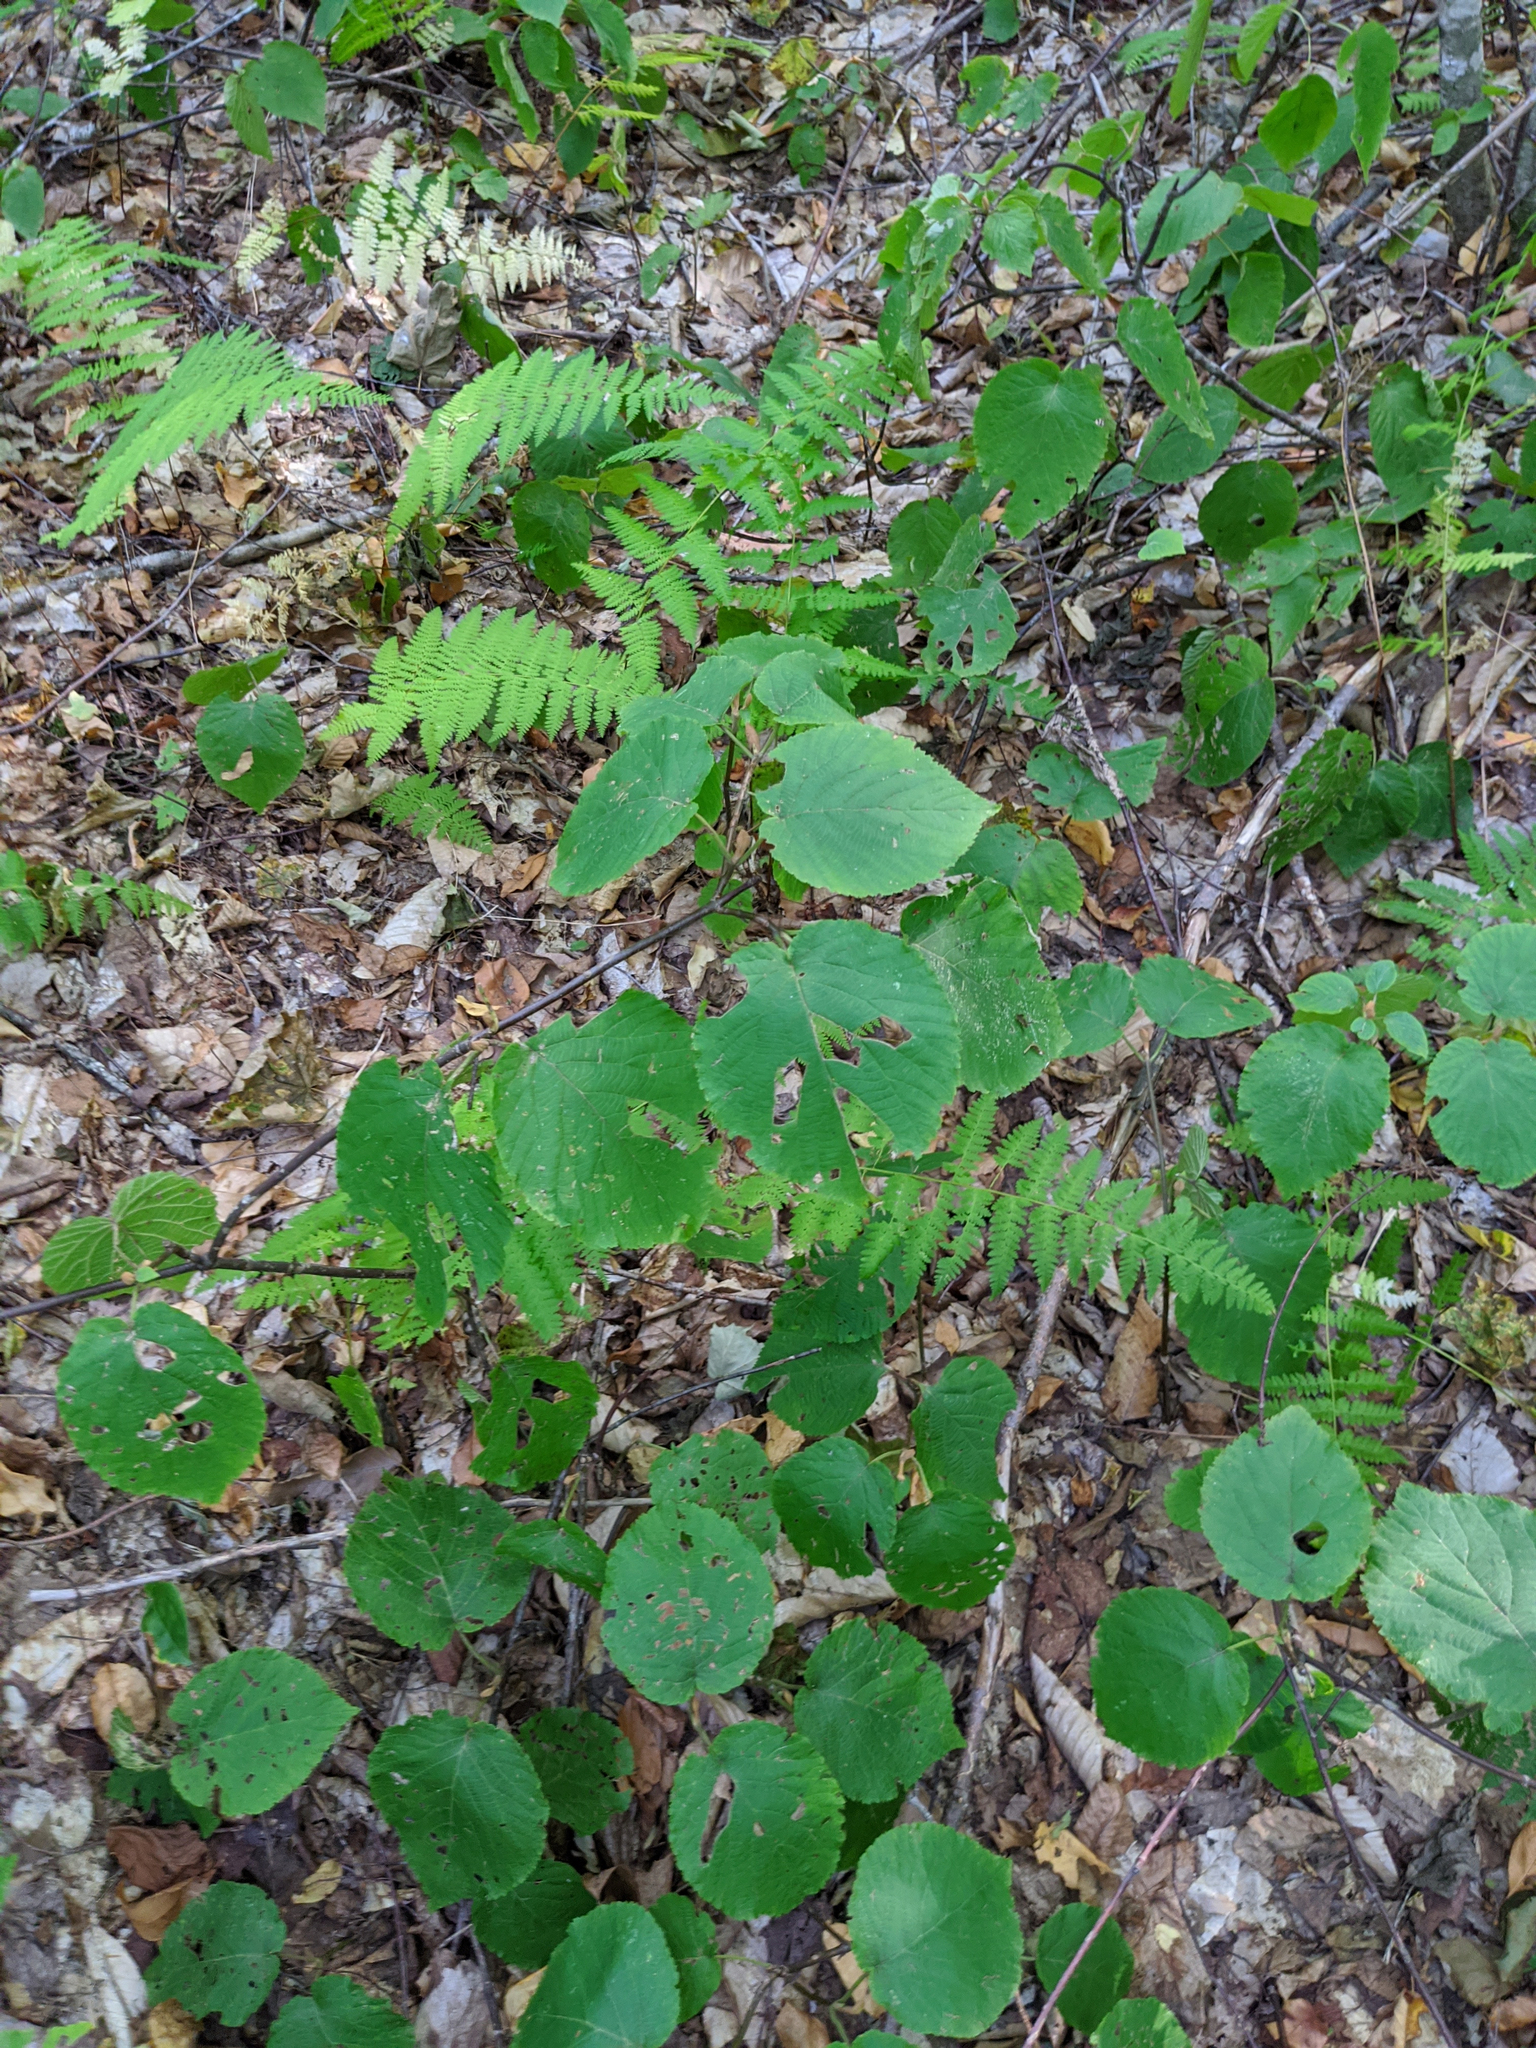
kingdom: Plantae
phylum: Tracheophyta
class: Magnoliopsida
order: Dipsacales
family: Viburnaceae
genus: Viburnum
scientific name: Viburnum lantanoides
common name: Hobblebush
